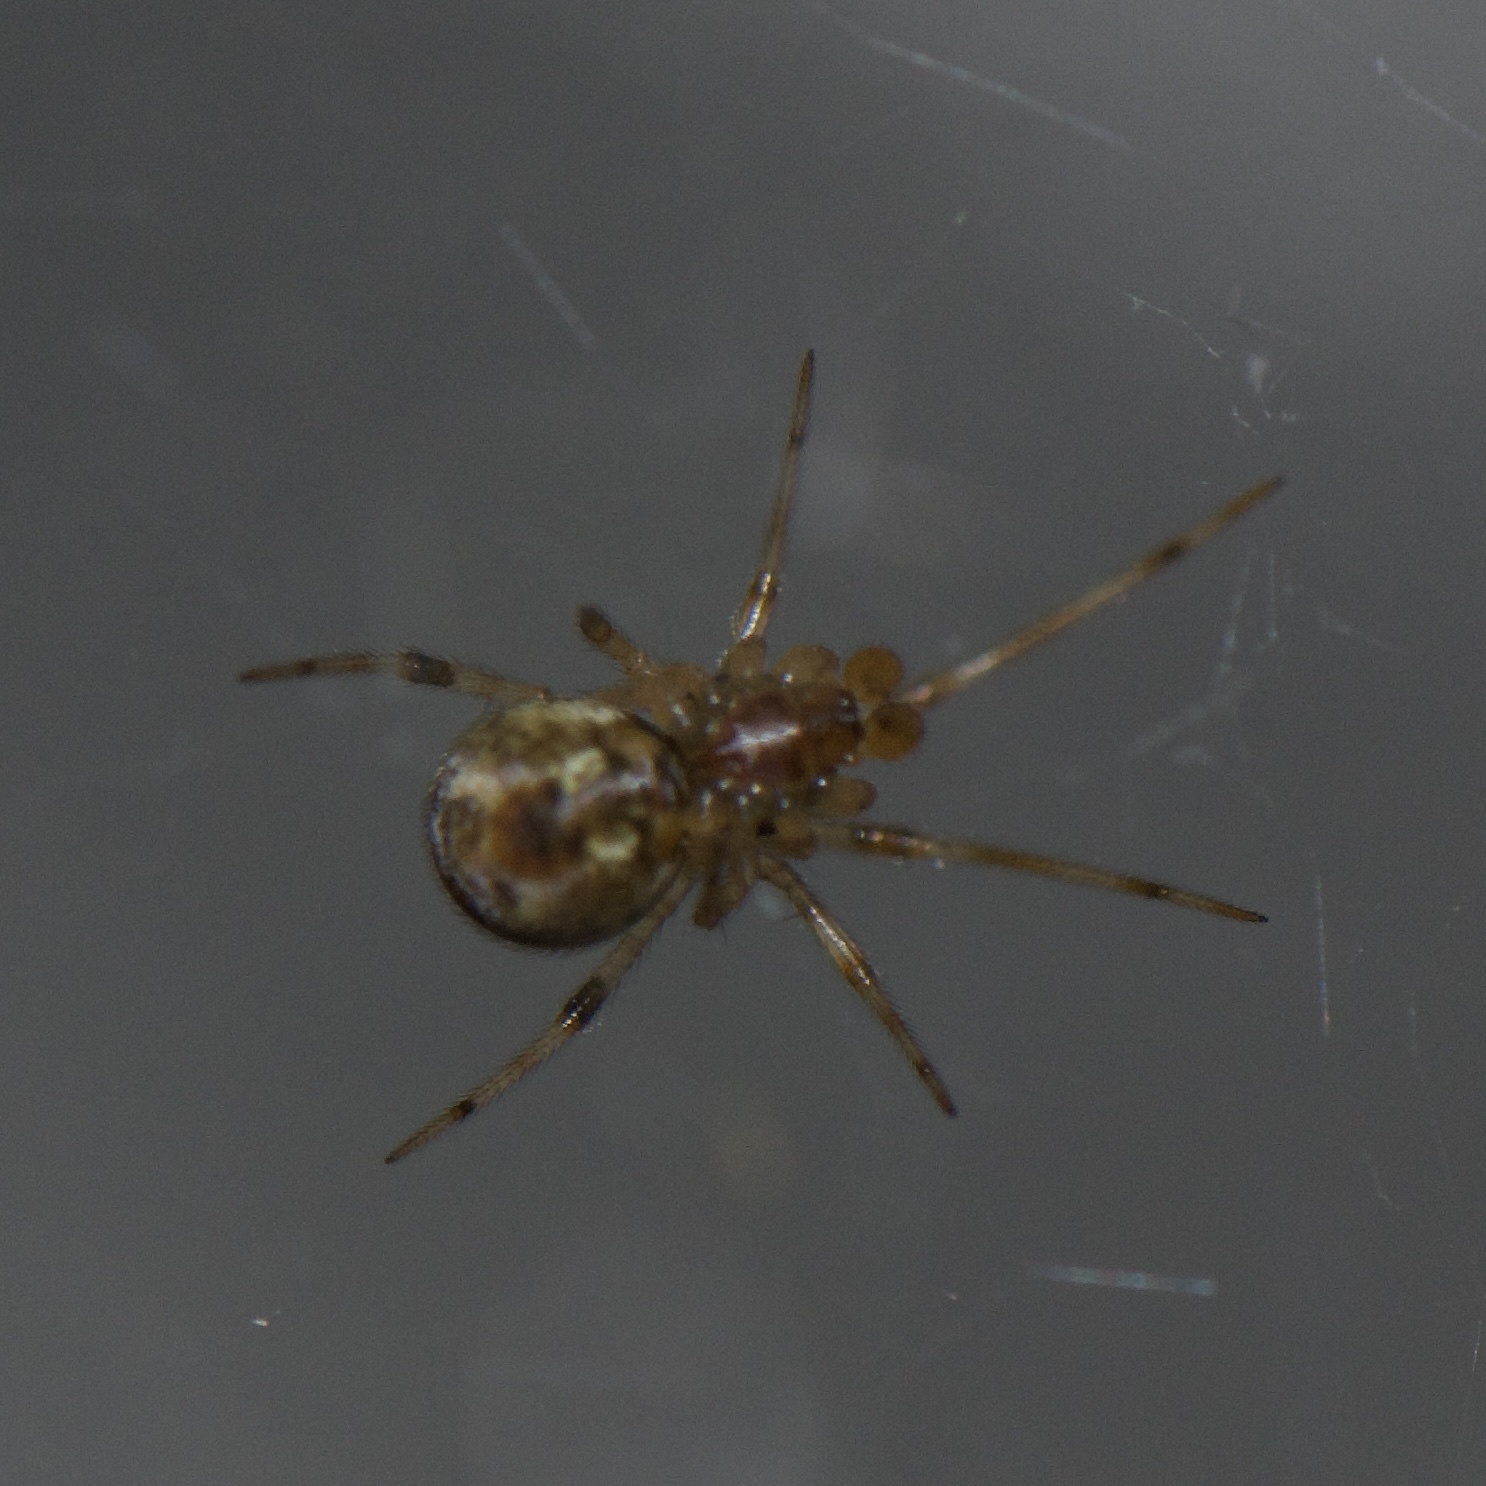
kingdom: Animalia
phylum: Arthropoda
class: Arachnida
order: Araneae
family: Theridiidae
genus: Parasteatoda
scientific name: Parasteatoda tepidariorum
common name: Common house spider
